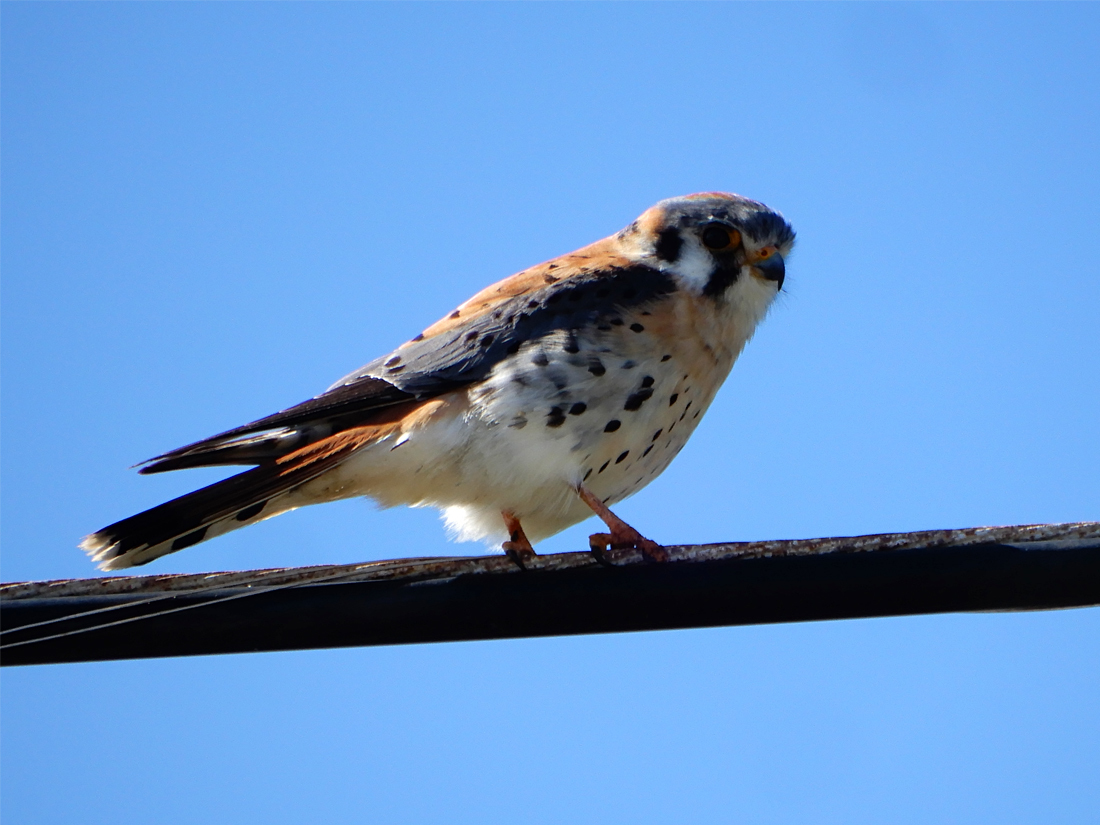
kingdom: Animalia
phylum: Chordata
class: Aves
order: Falconiformes
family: Falconidae
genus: Falco
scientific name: Falco sparverius
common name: American kestrel
